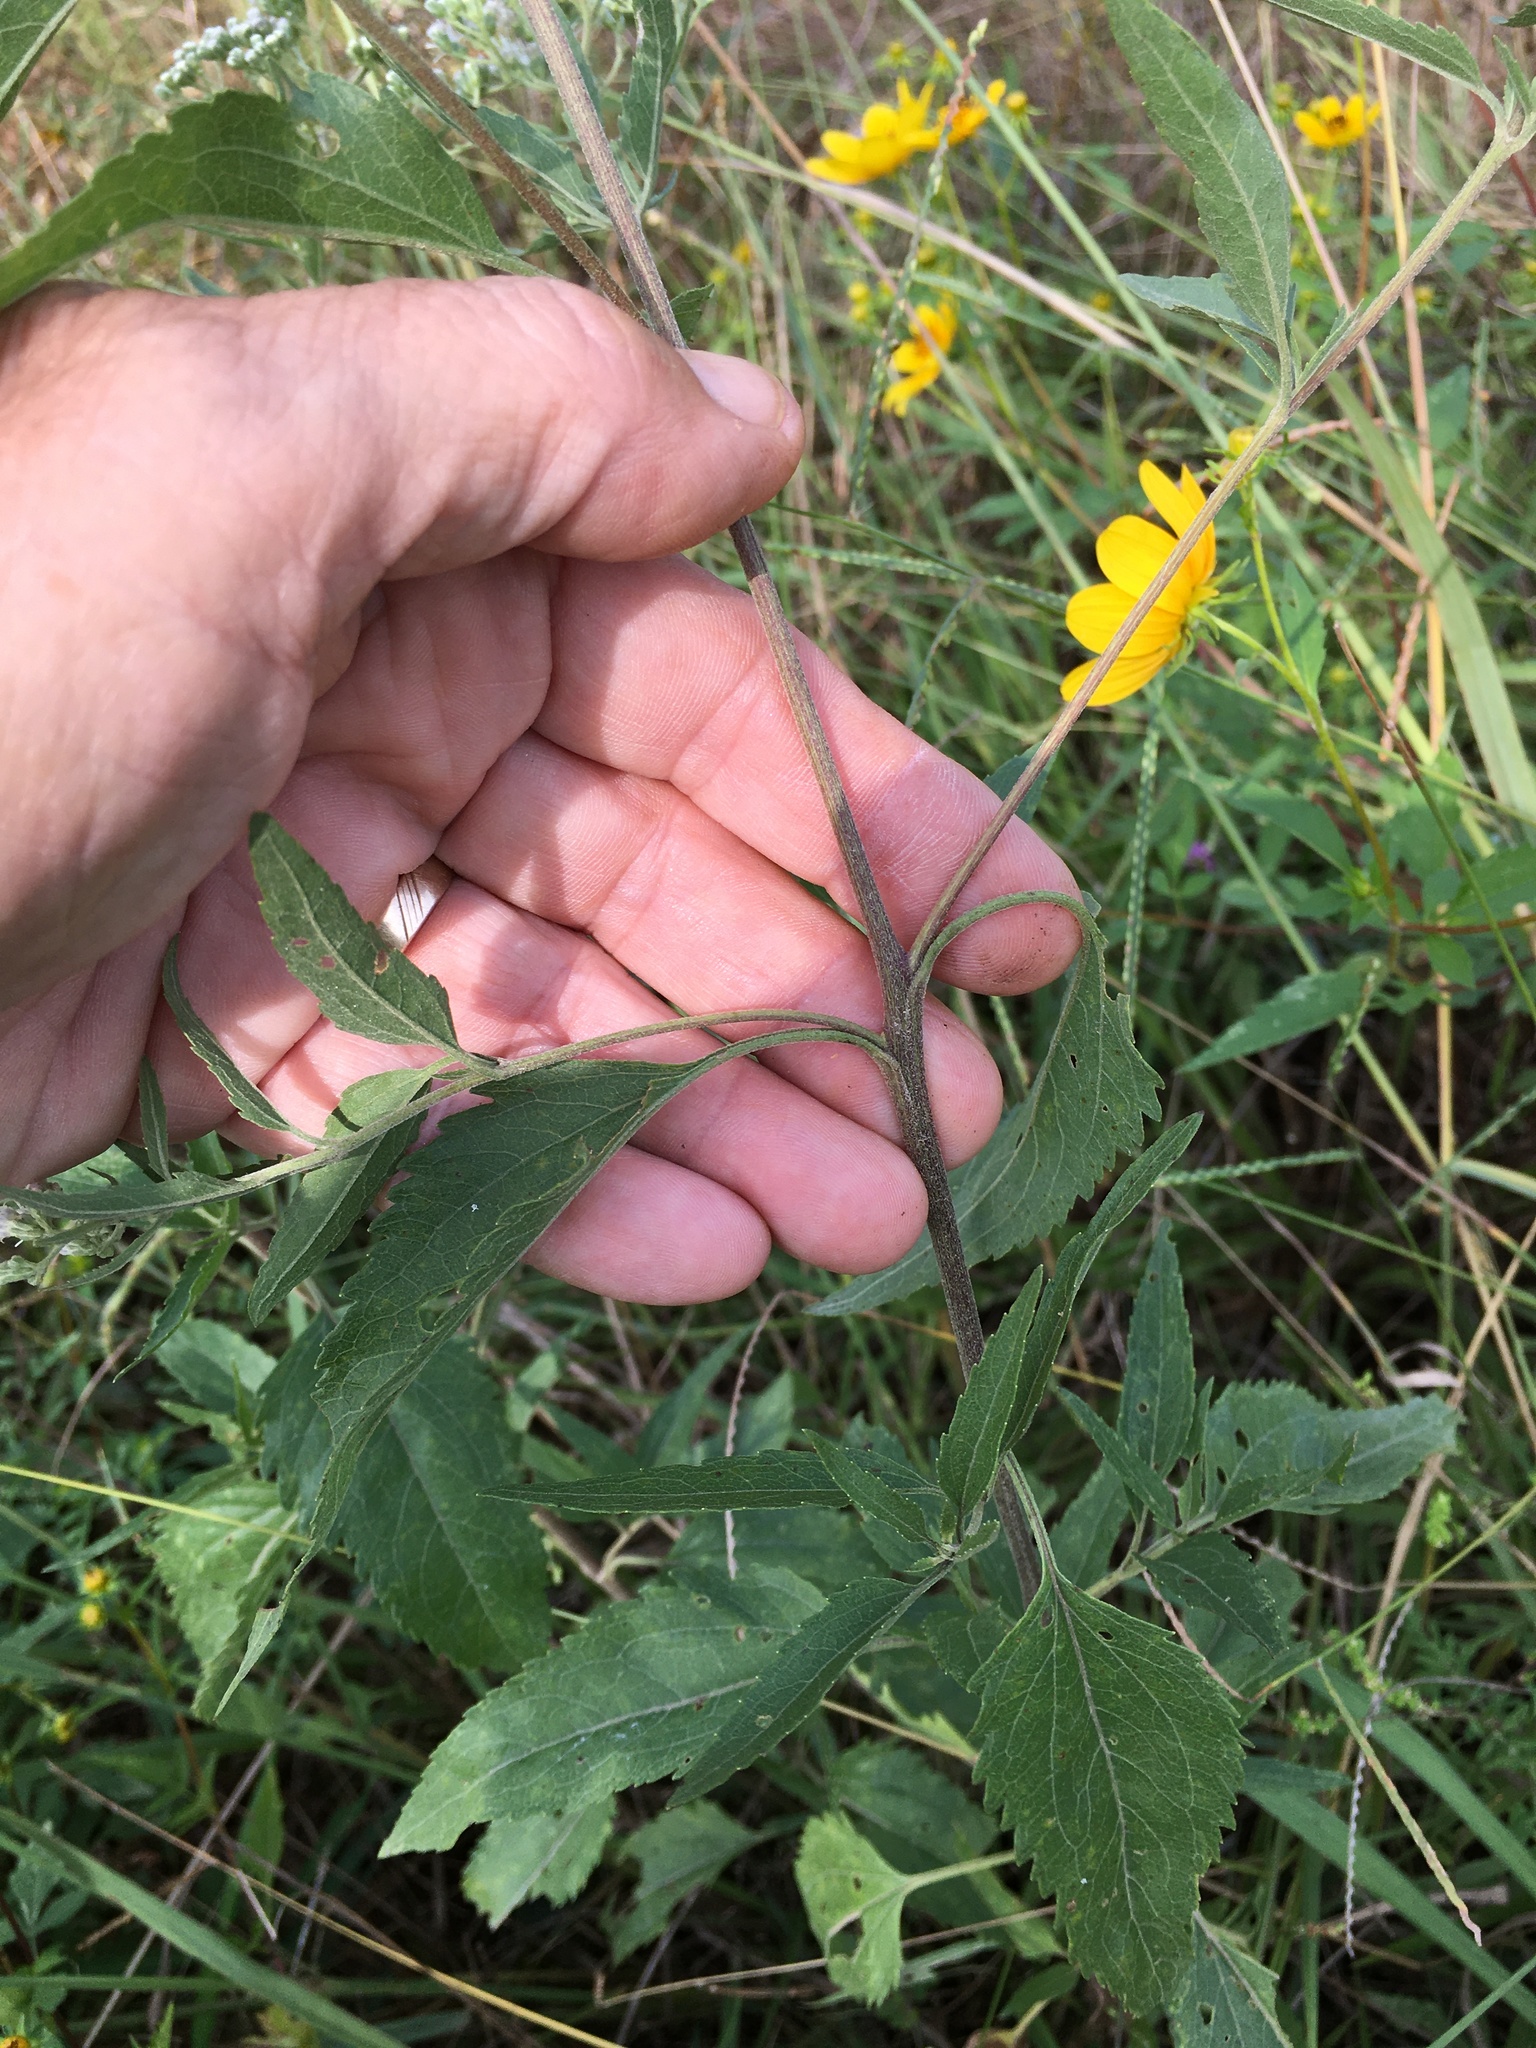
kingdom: Plantae
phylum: Tracheophyta
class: Magnoliopsida
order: Asterales
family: Asteraceae
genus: Eupatorium
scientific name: Eupatorium serotinum
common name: Late boneset
